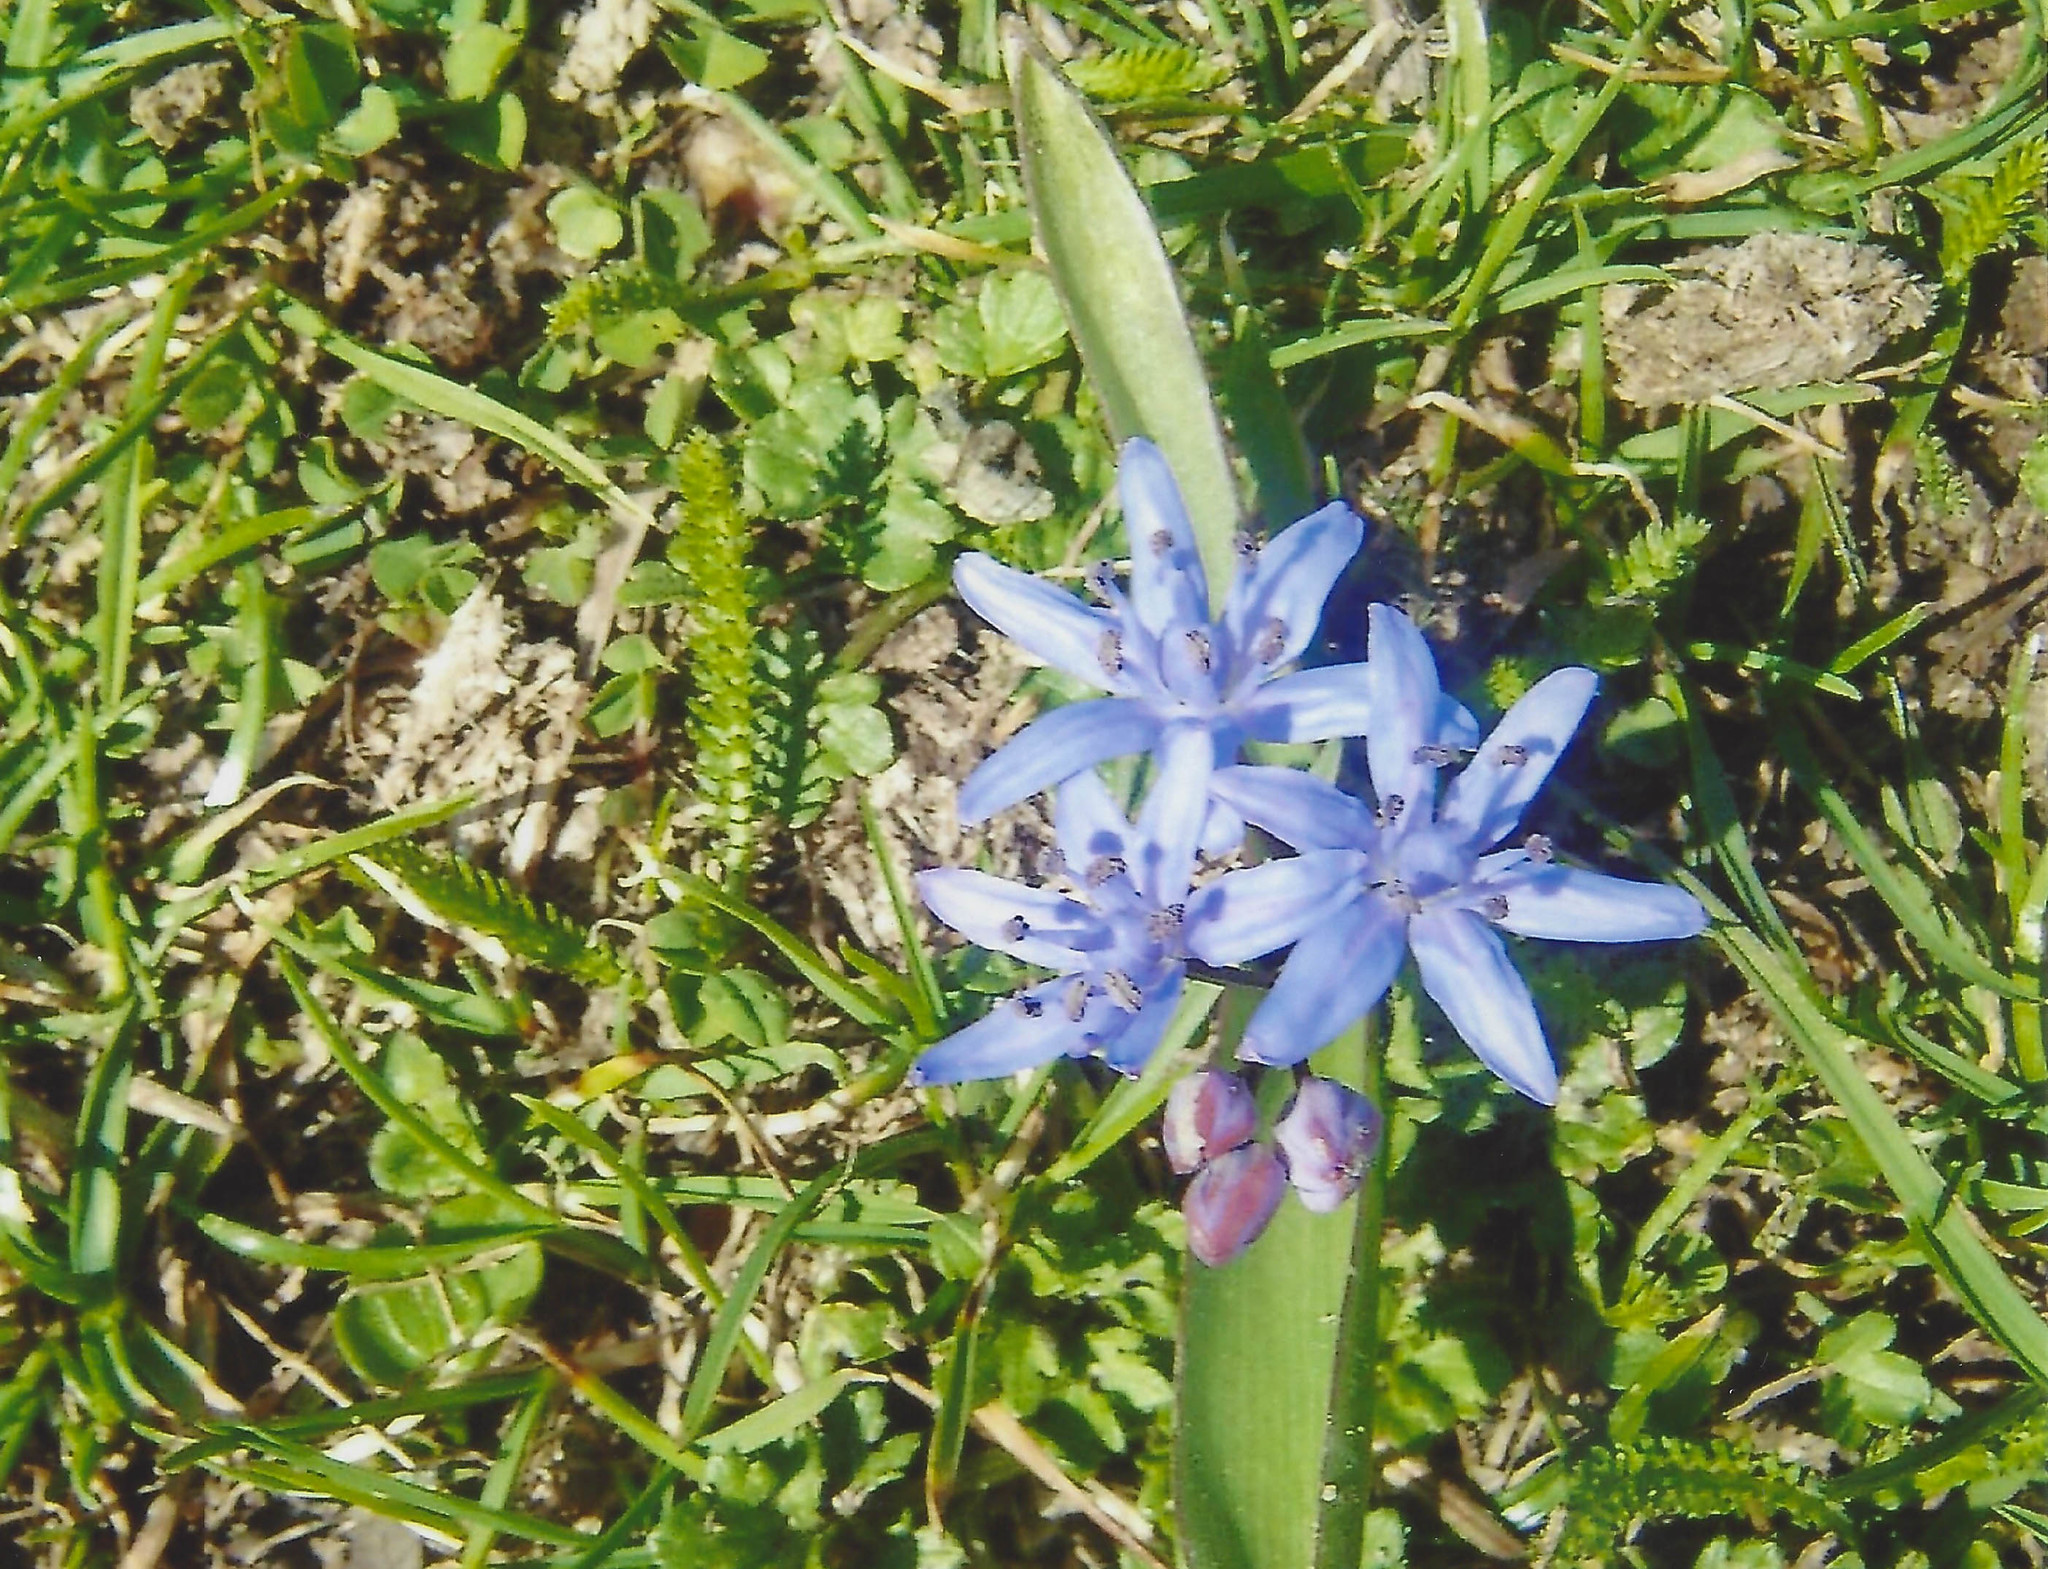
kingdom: Plantae
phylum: Tracheophyta
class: Liliopsida
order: Asparagales
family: Asparagaceae
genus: Scilla
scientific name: Scilla bifolia
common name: Alpine squill
